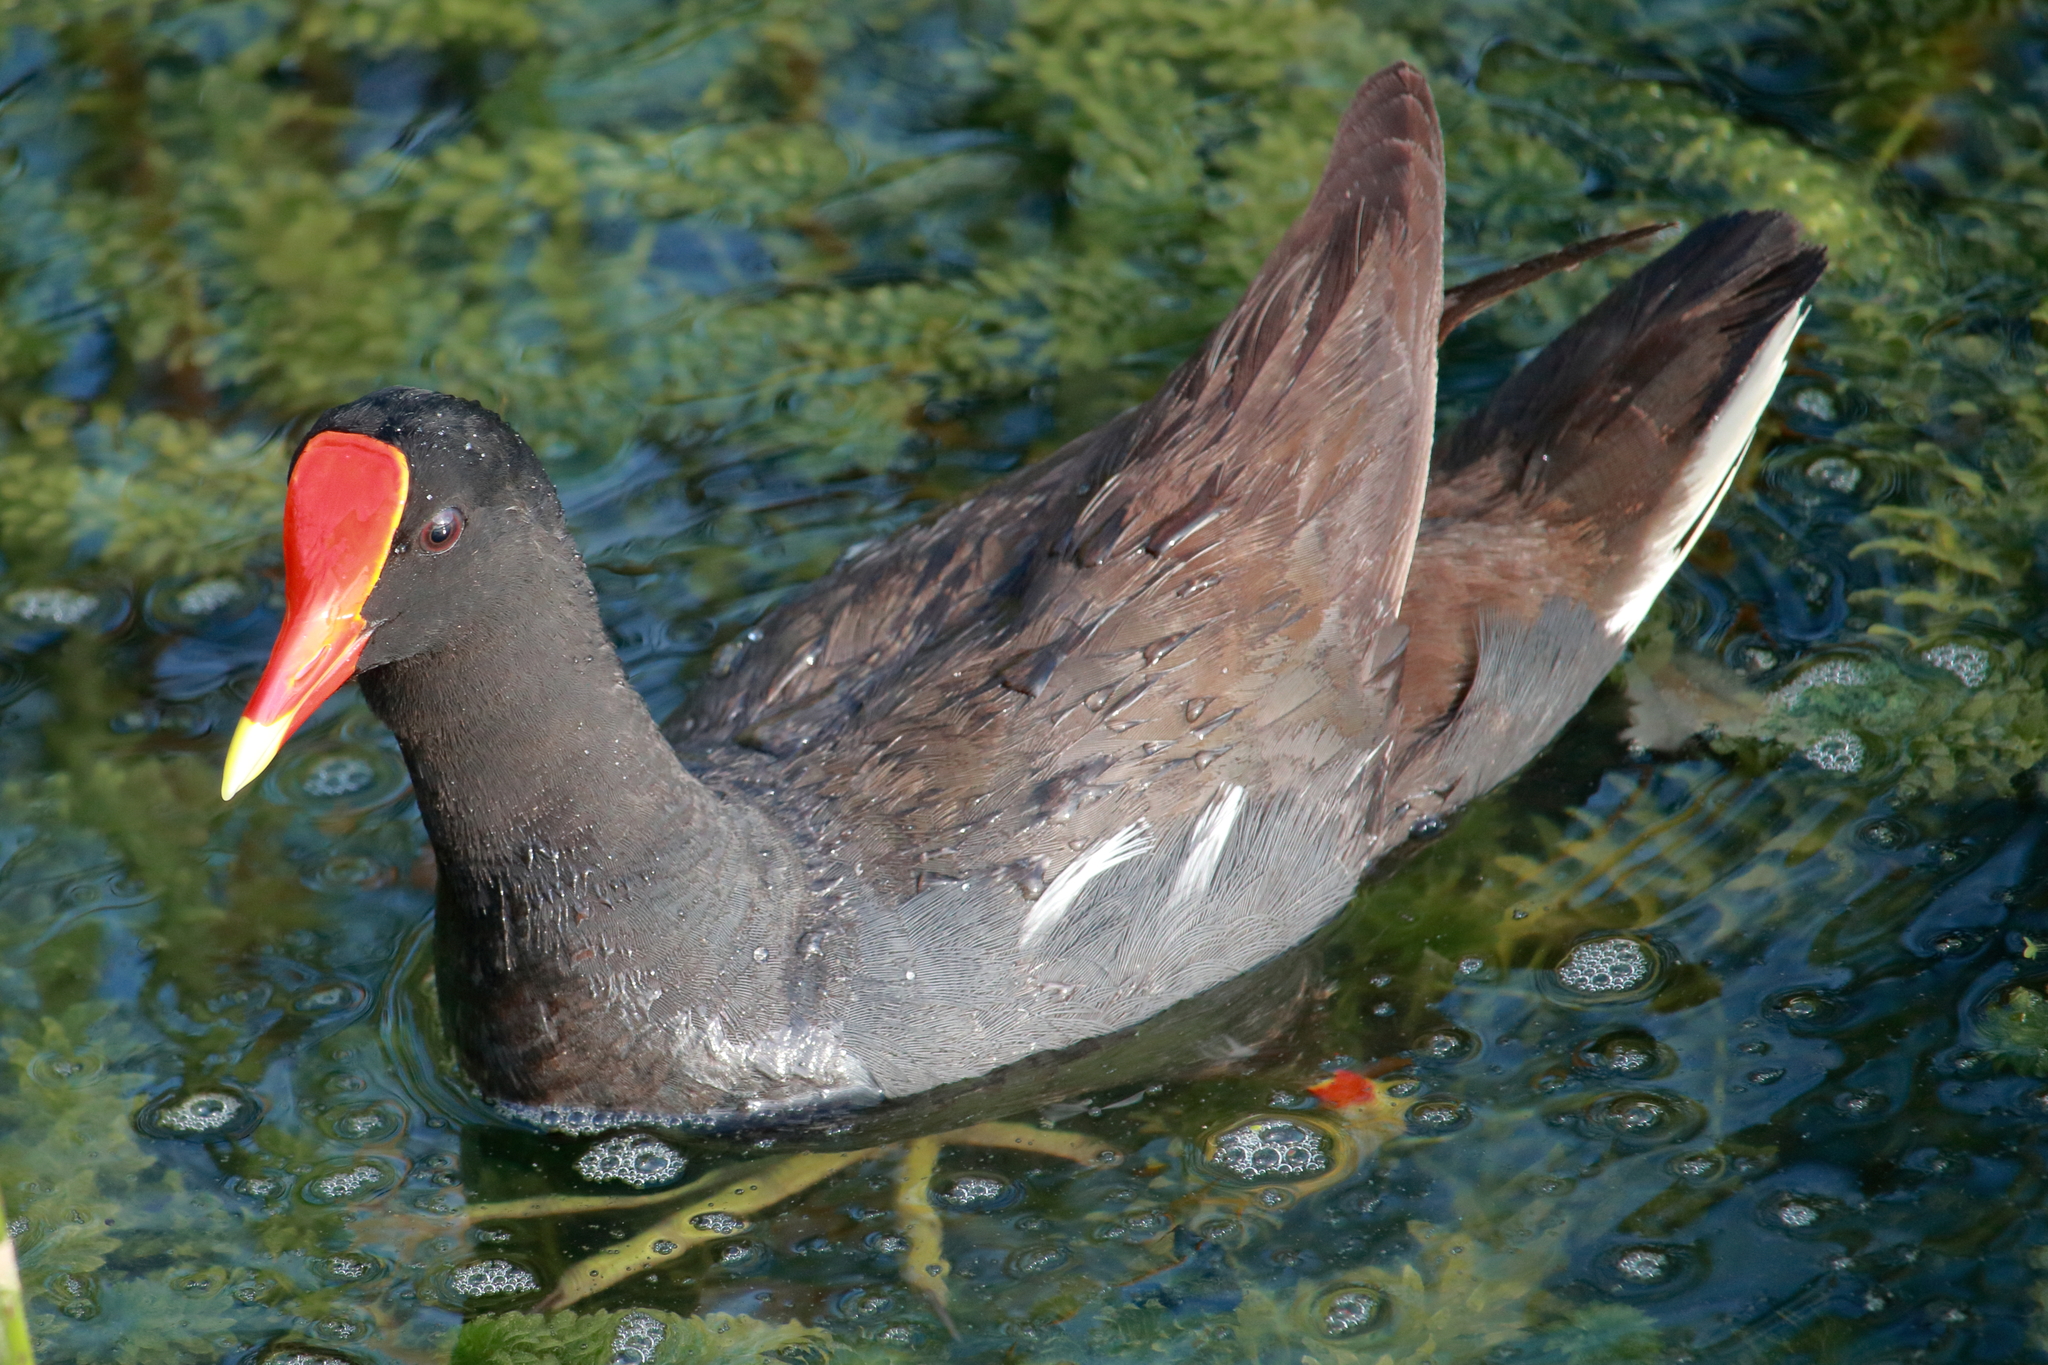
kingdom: Animalia
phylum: Chordata
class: Aves
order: Gruiformes
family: Rallidae
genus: Gallinula
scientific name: Gallinula chloropus
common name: Common moorhen
